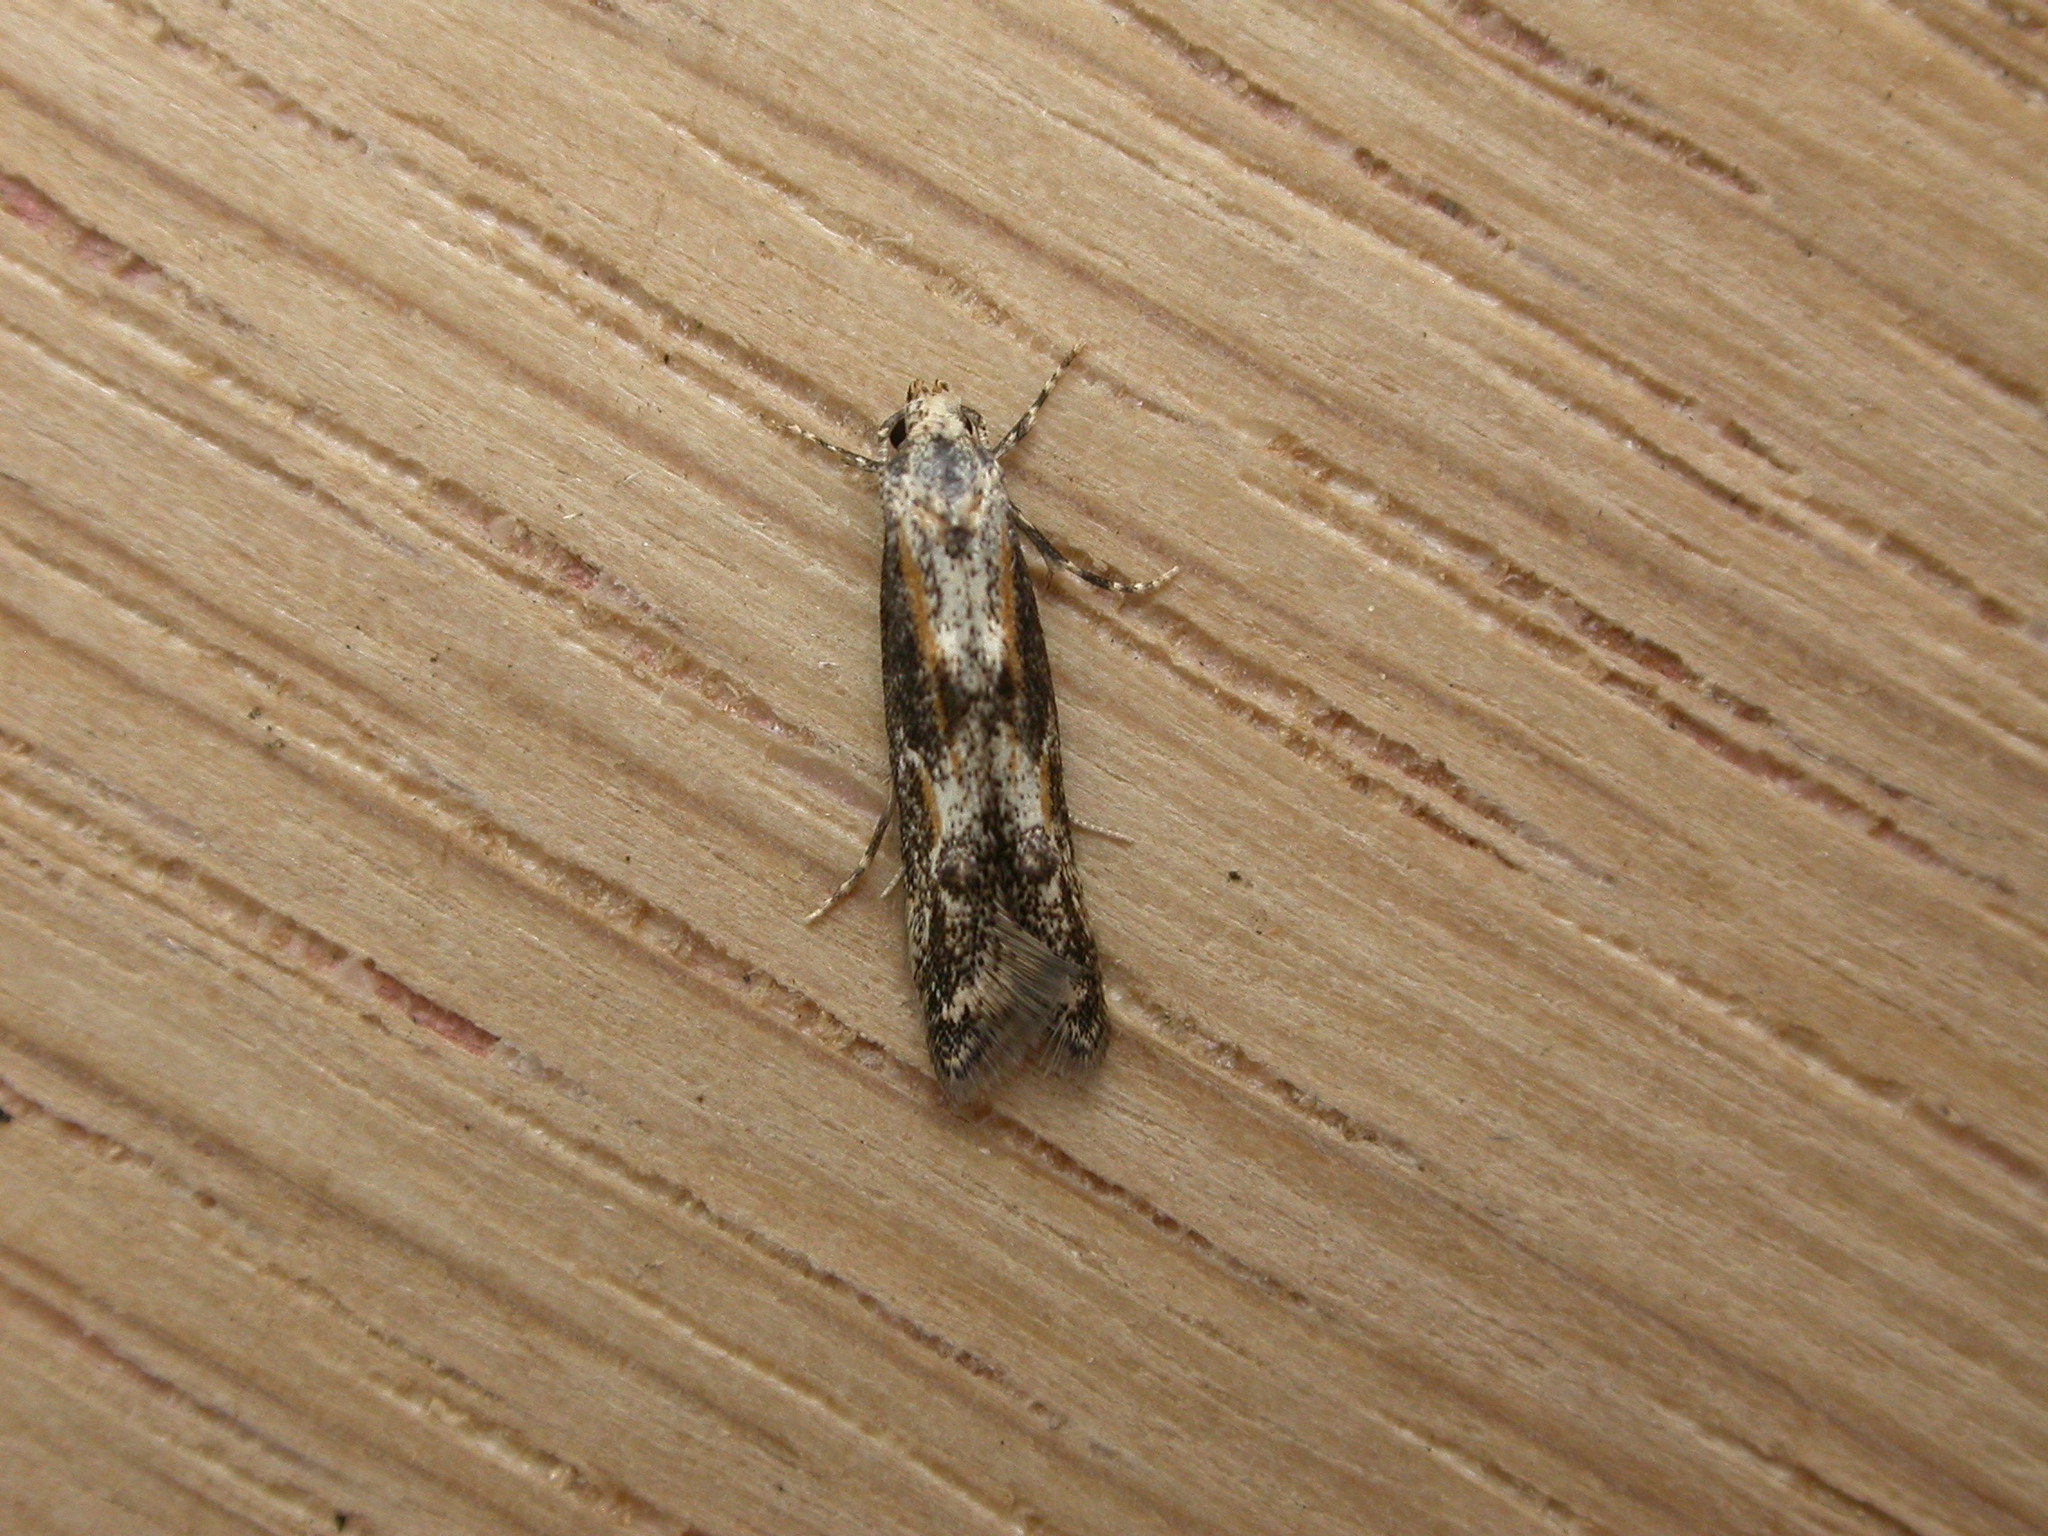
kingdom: Animalia
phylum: Arthropoda
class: Insecta
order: Lepidoptera
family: Elachistidae
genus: Blastodacna
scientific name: Blastodacna atra
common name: Apple pith moth
